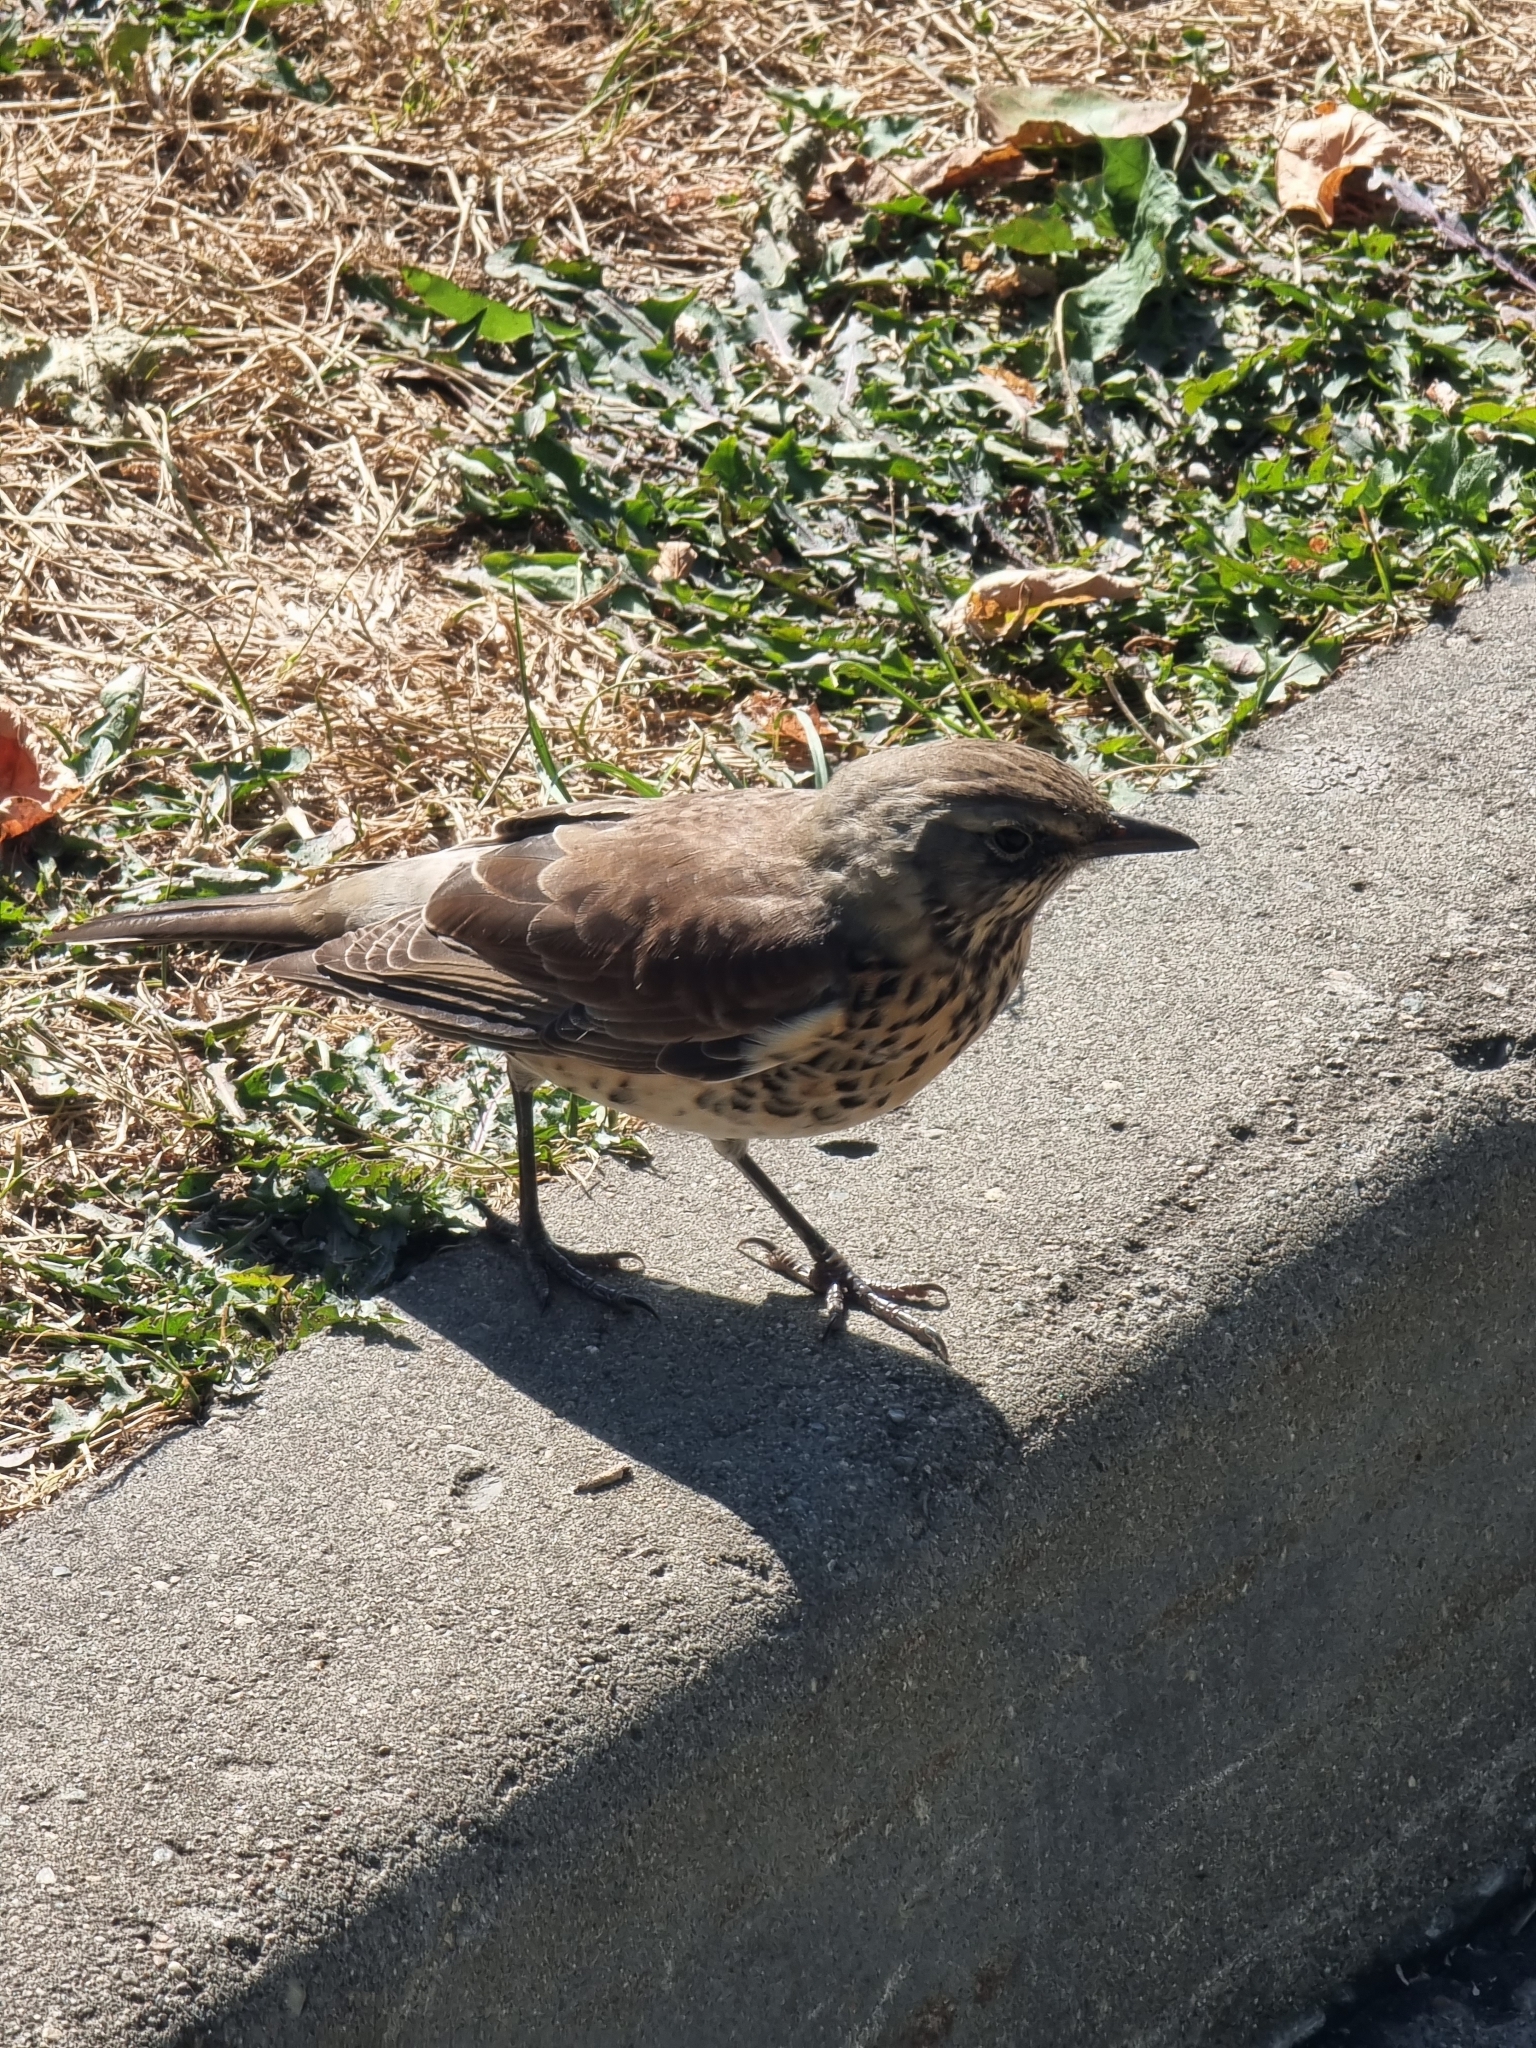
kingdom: Animalia
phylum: Chordata
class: Aves
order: Passeriformes
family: Turdidae
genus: Turdus
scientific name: Turdus pilaris
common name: Fieldfare
